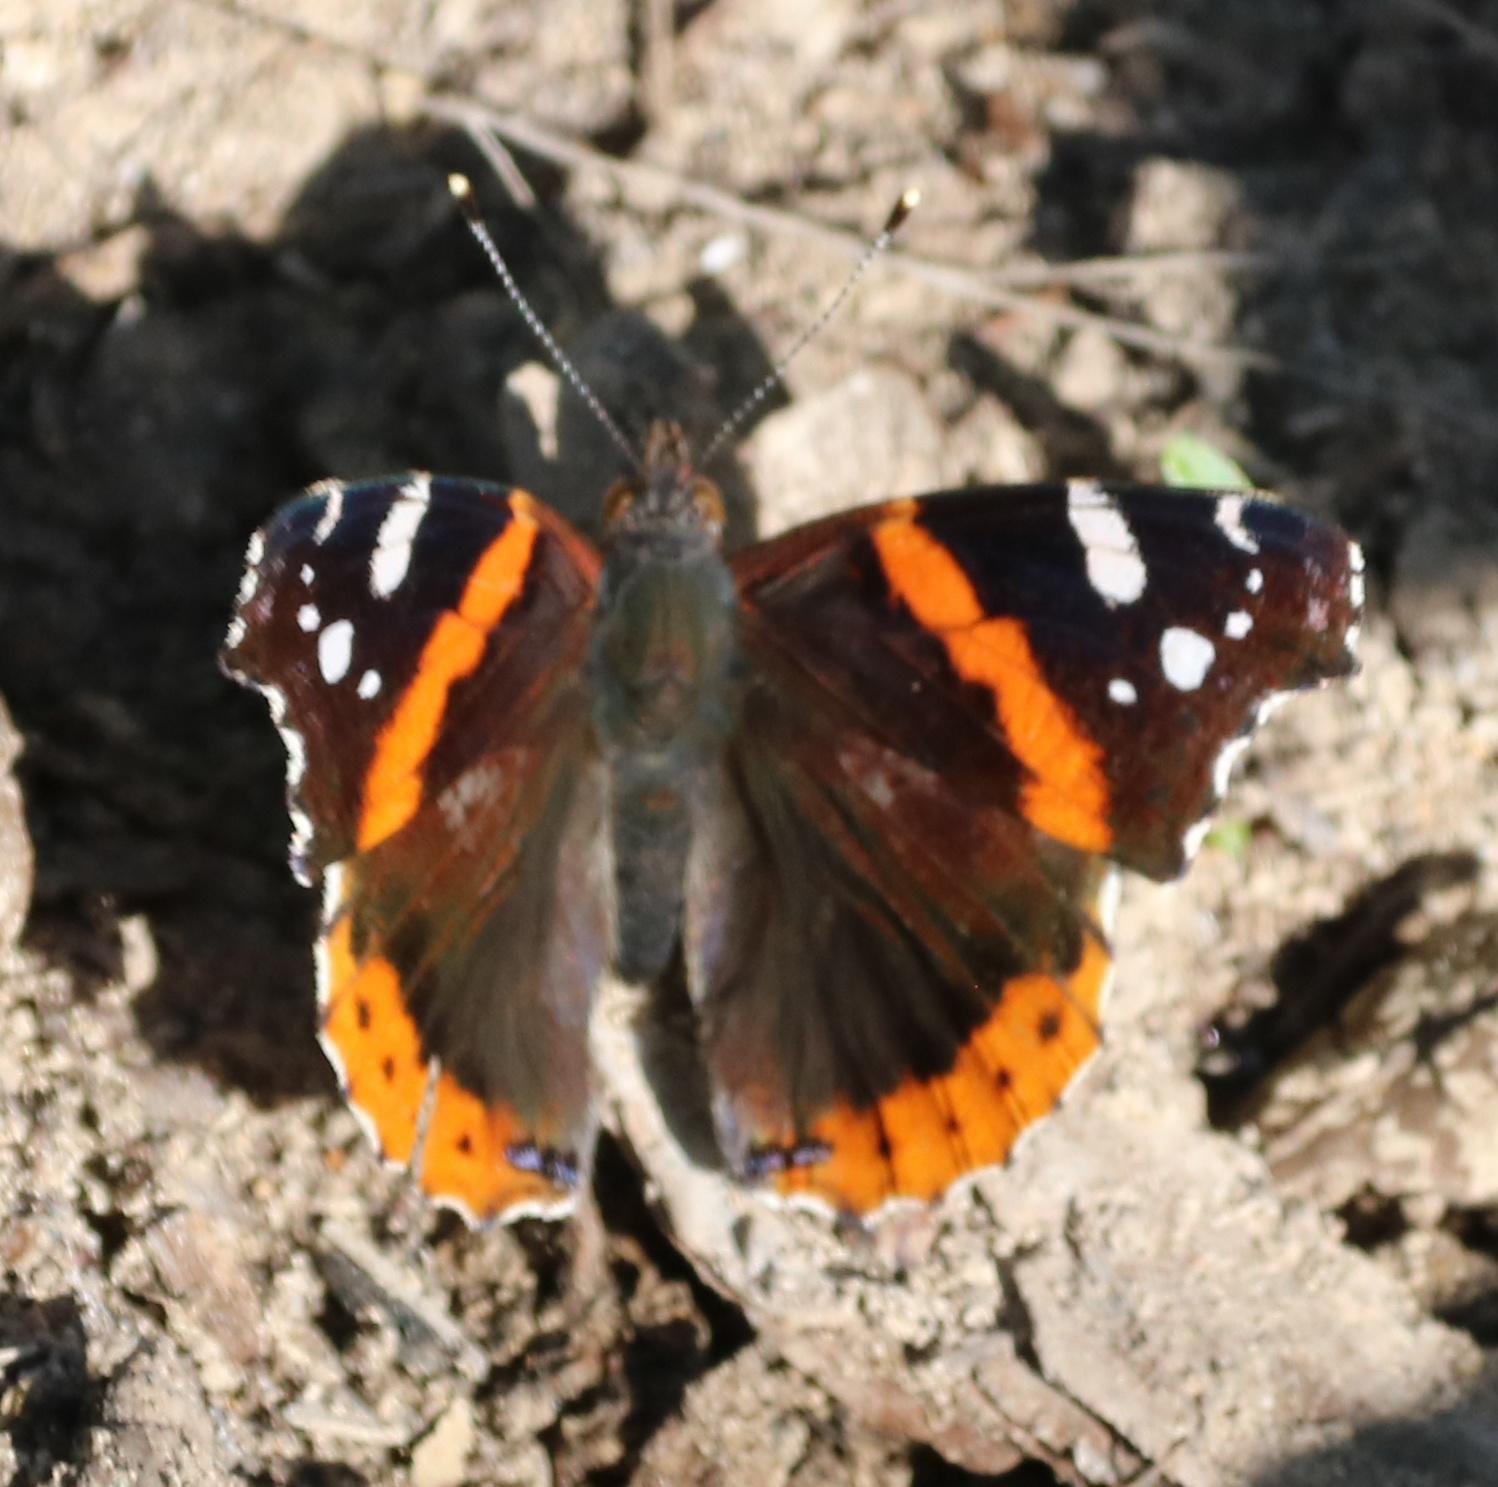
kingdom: Animalia
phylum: Arthropoda
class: Insecta
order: Lepidoptera
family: Nymphalidae
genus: Vanessa
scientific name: Vanessa atalanta
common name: Red admiral
